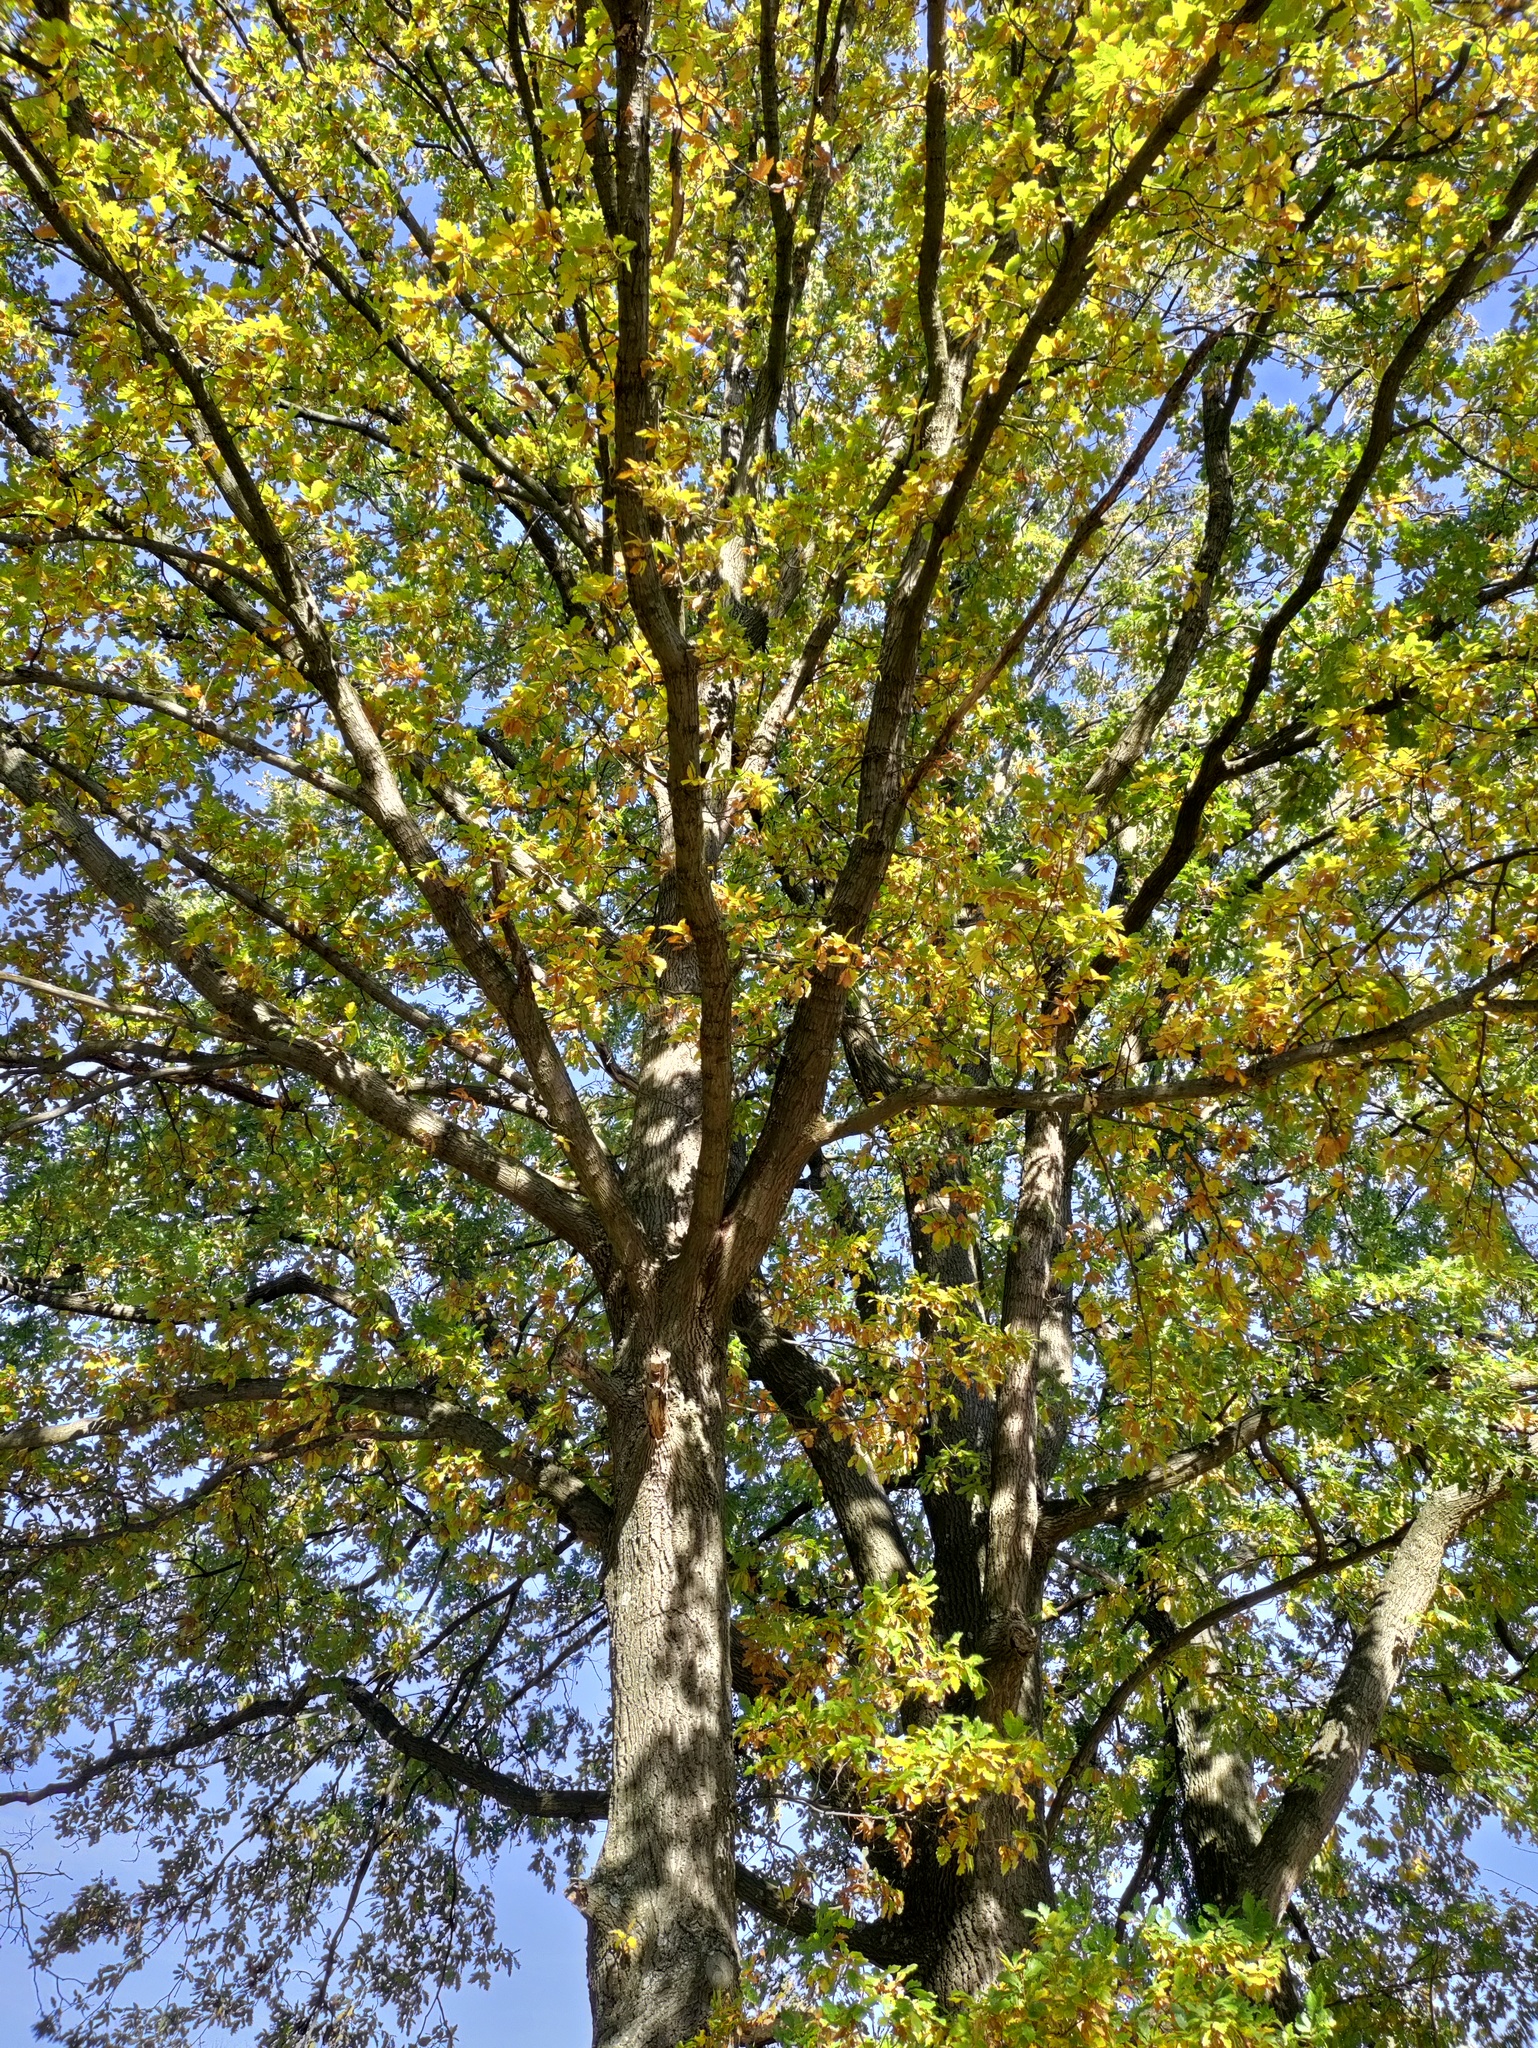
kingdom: Plantae
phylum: Tracheophyta
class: Magnoliopsida
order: Fagales
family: Fagaceae
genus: Quercus
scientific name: Quercus cerris
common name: Turkey oak
